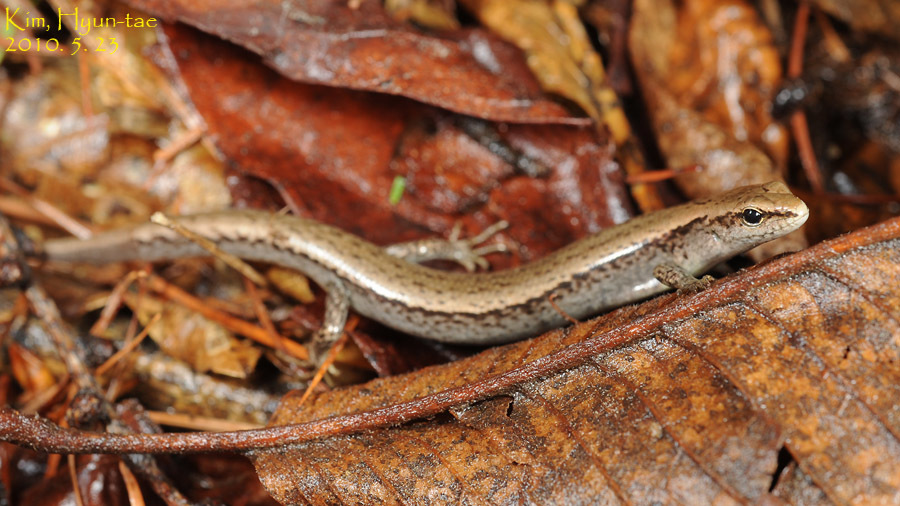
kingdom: Animalia
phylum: Chordata
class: Squamata
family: Scincidae
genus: Scincella
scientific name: Scincella vandenburghi
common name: Tsushima smooth skink
